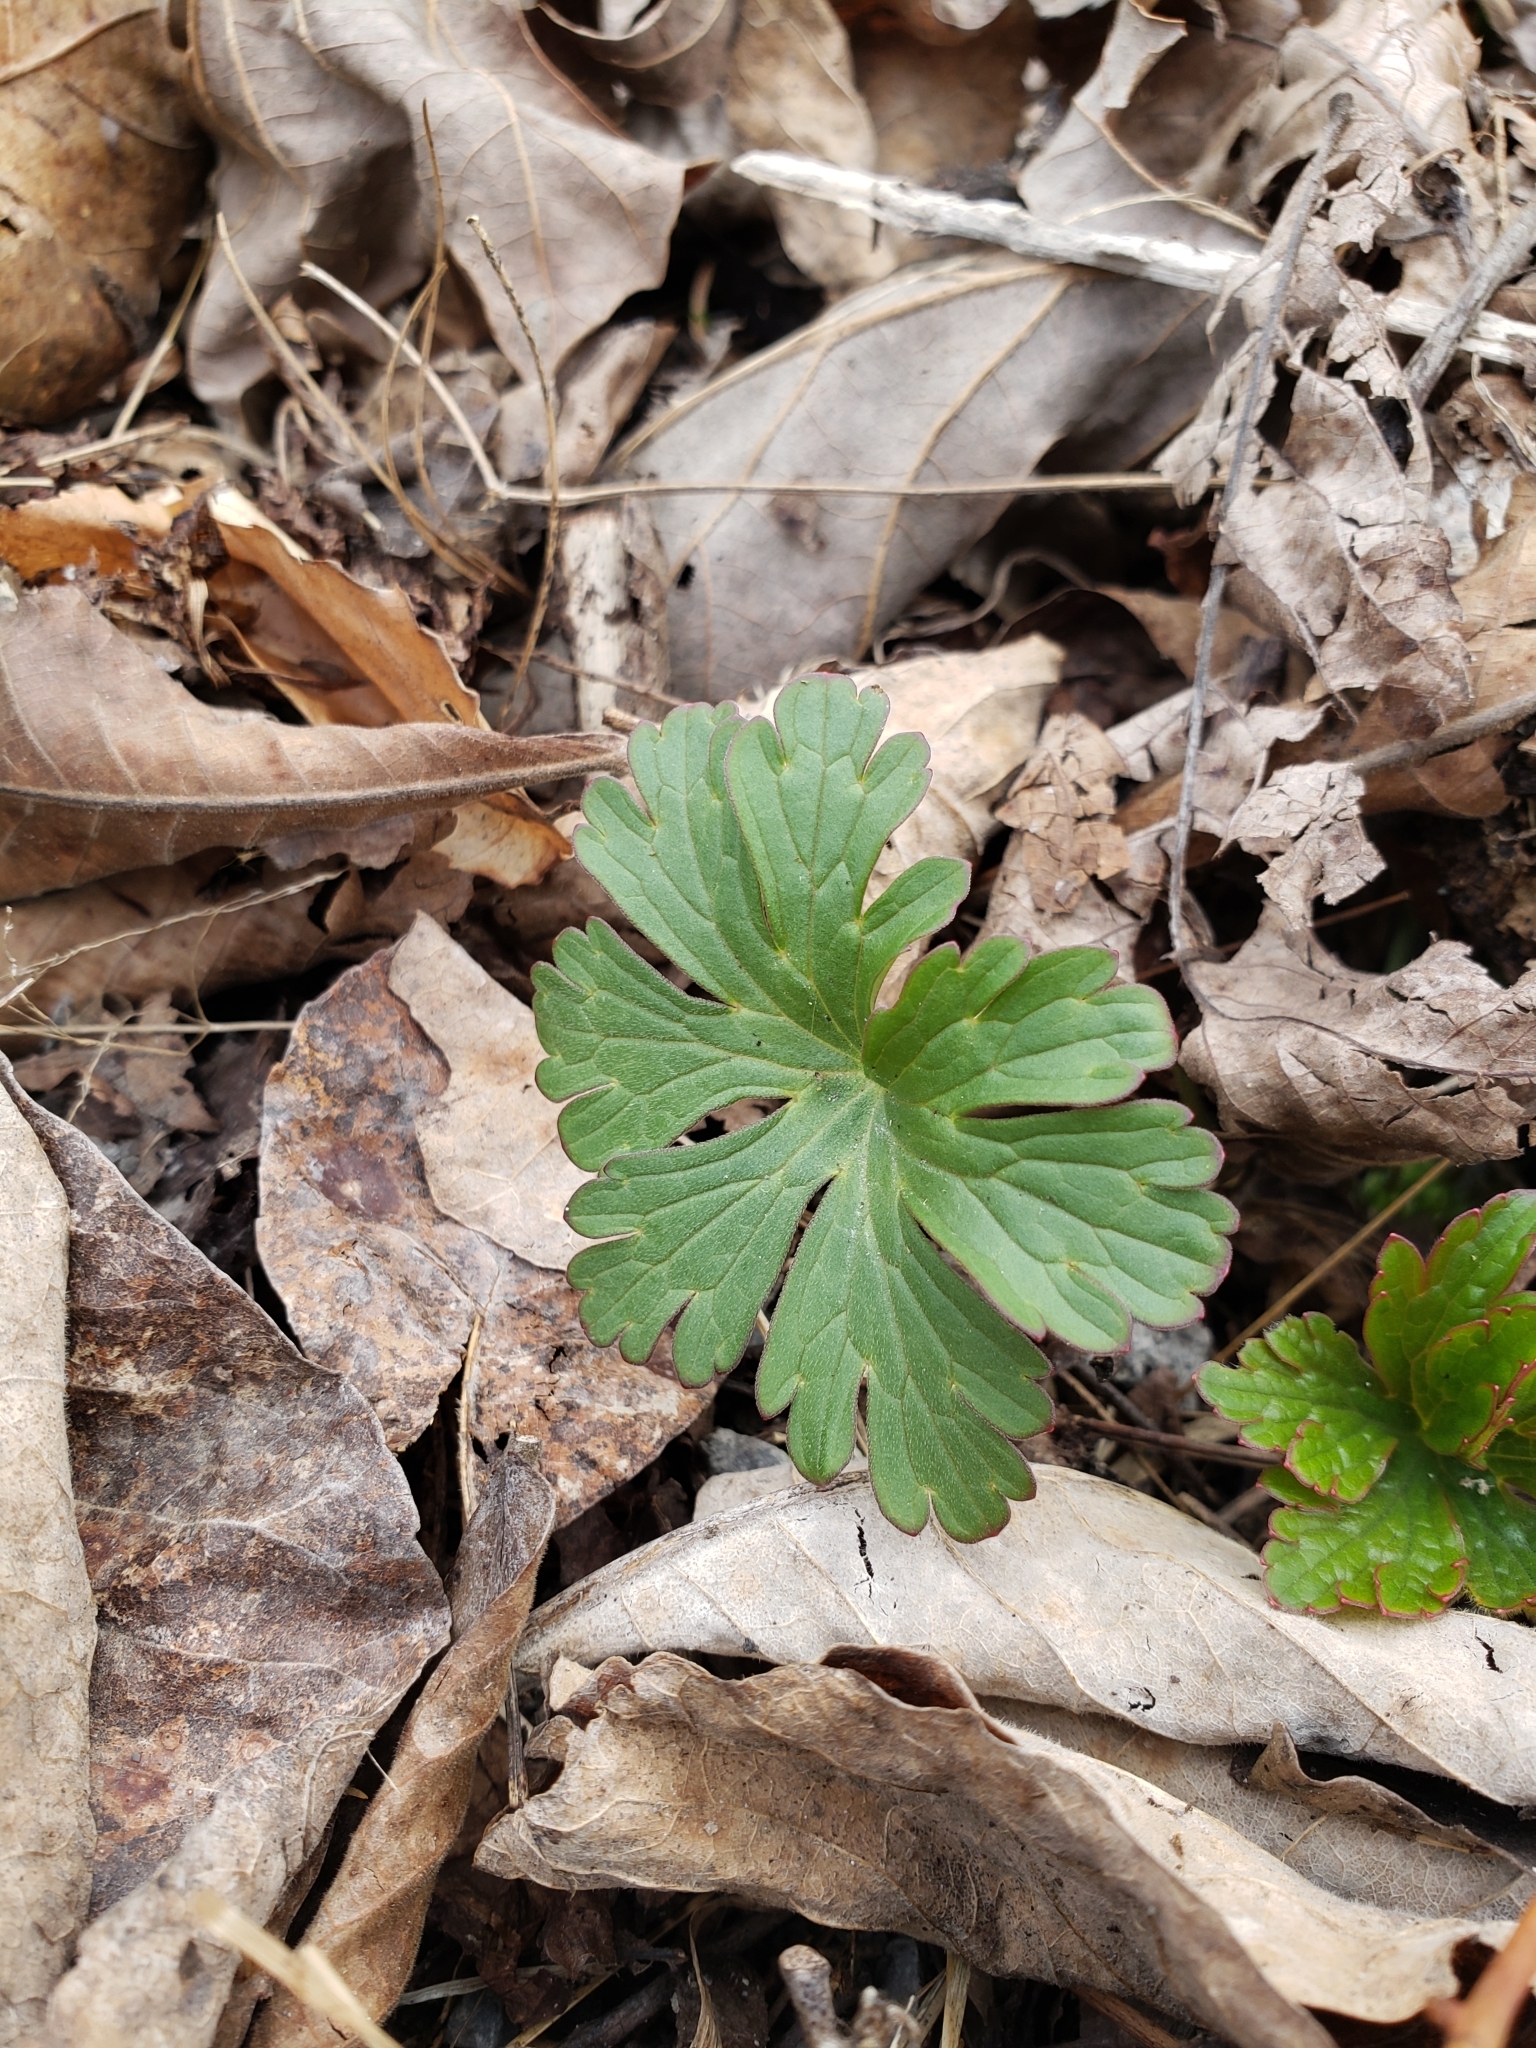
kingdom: Plantae
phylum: Tracheophyta
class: Magnoliopsida
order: Geraniales
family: Geraniaceae
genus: Geranium
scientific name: Geranium maculatum
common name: Spotted geranium
